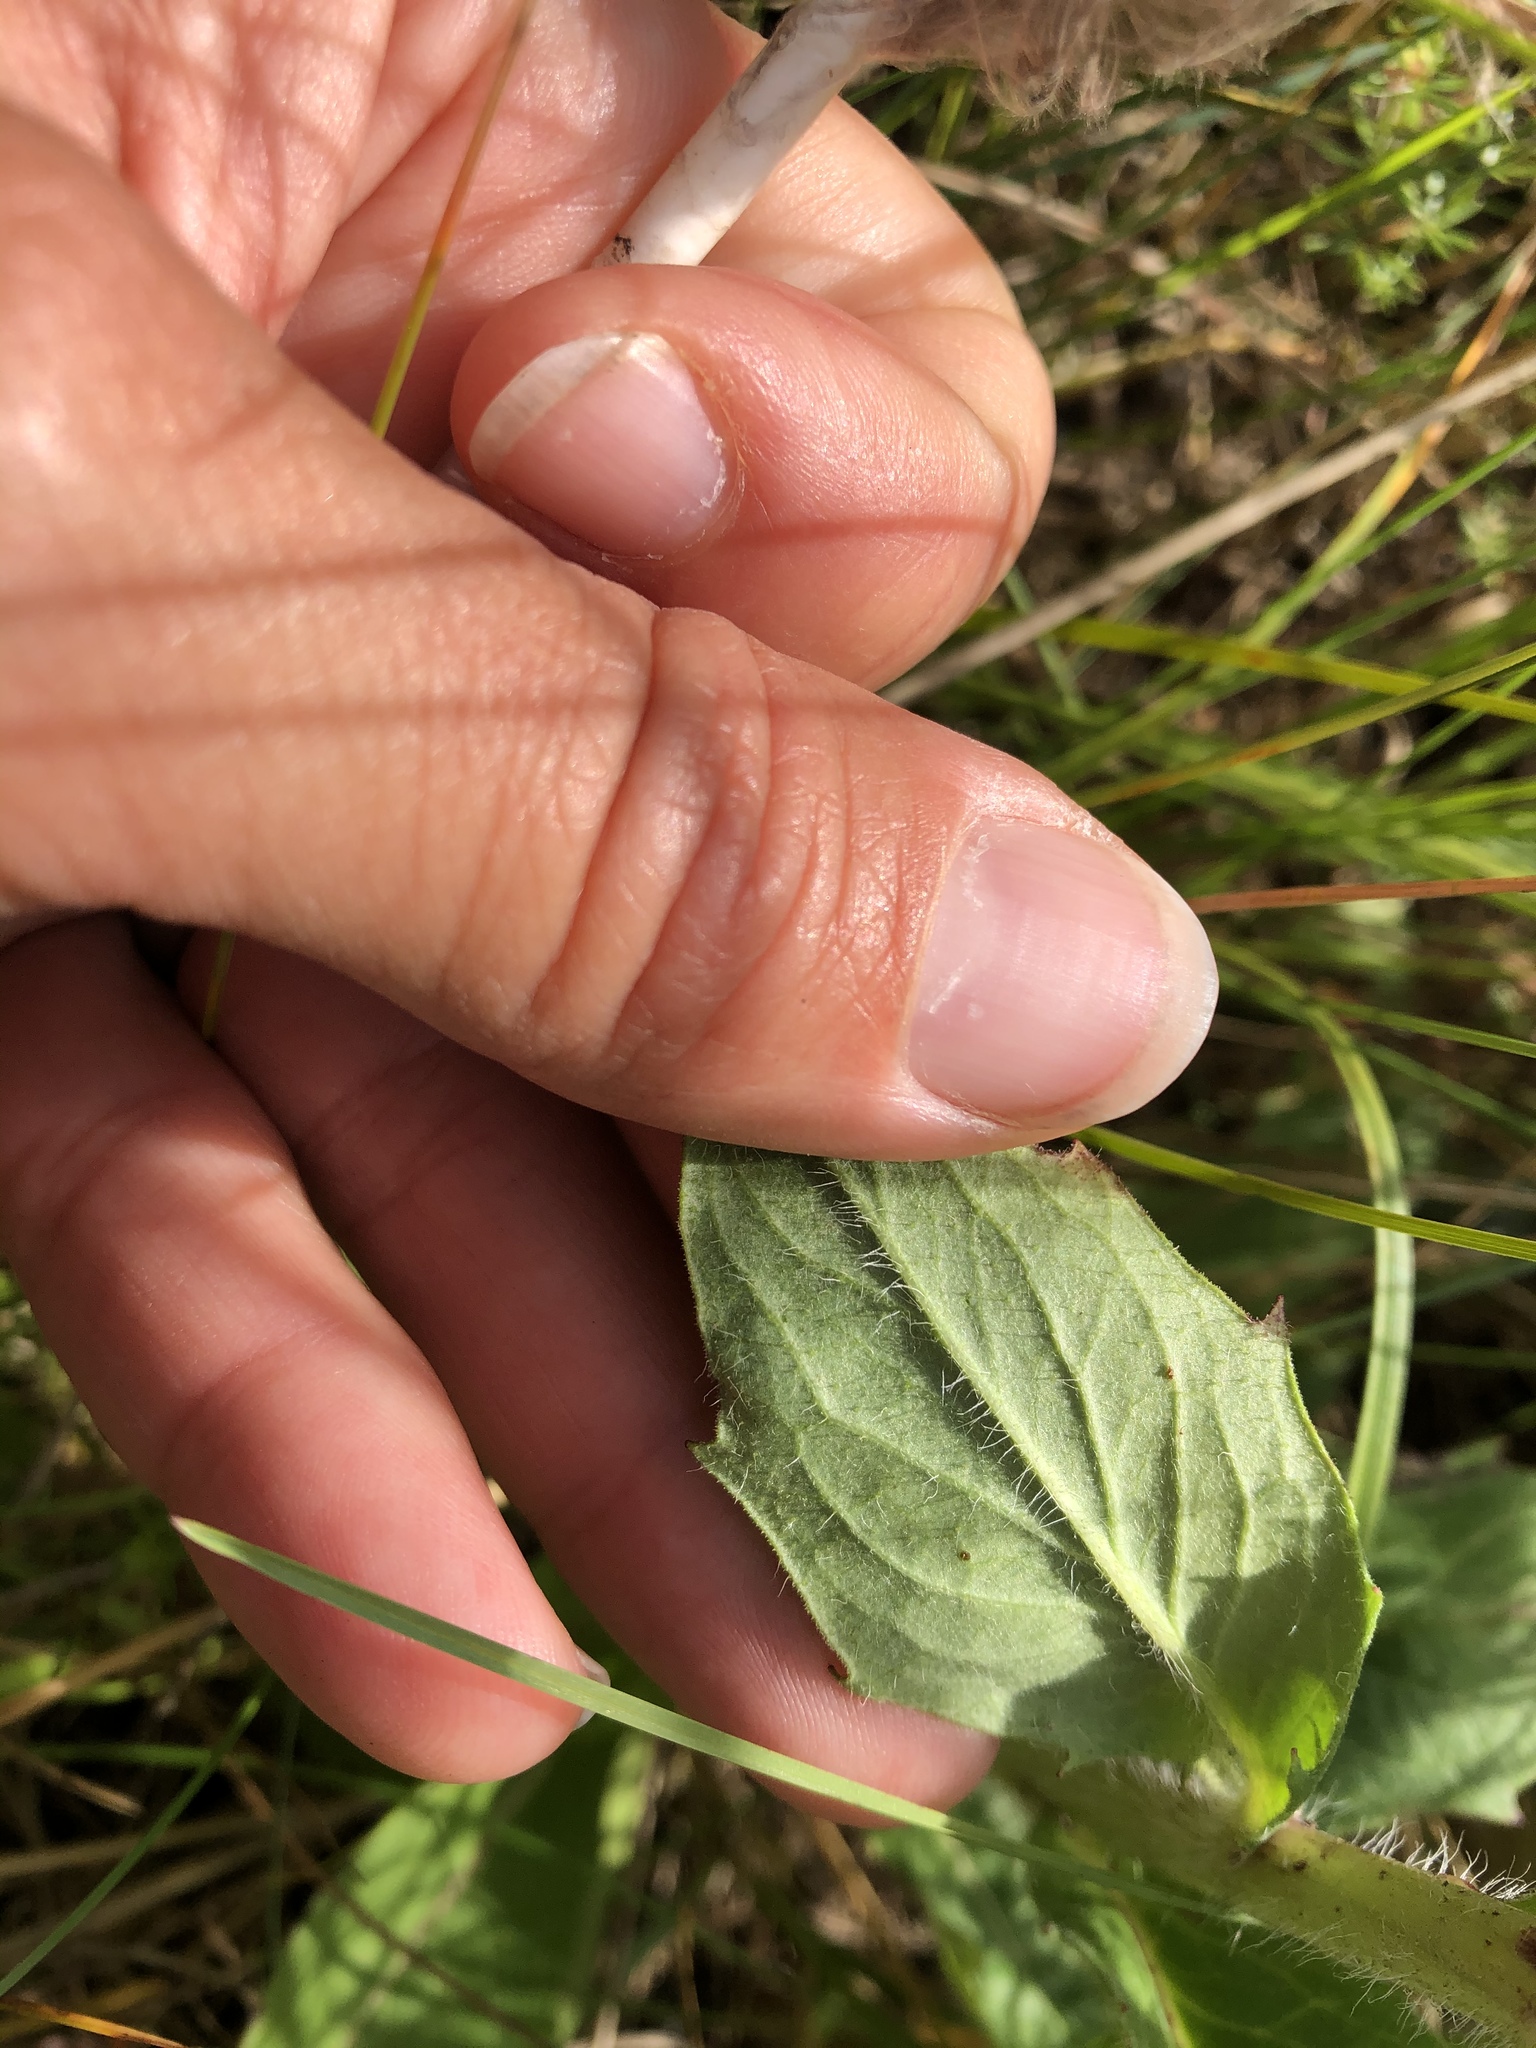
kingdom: Plantae
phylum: Tracheophyta
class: Magnoliopsida
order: Asterales
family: Asteraceae
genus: Hieracium
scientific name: Hieracium sabaudum
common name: New england hawkweed
